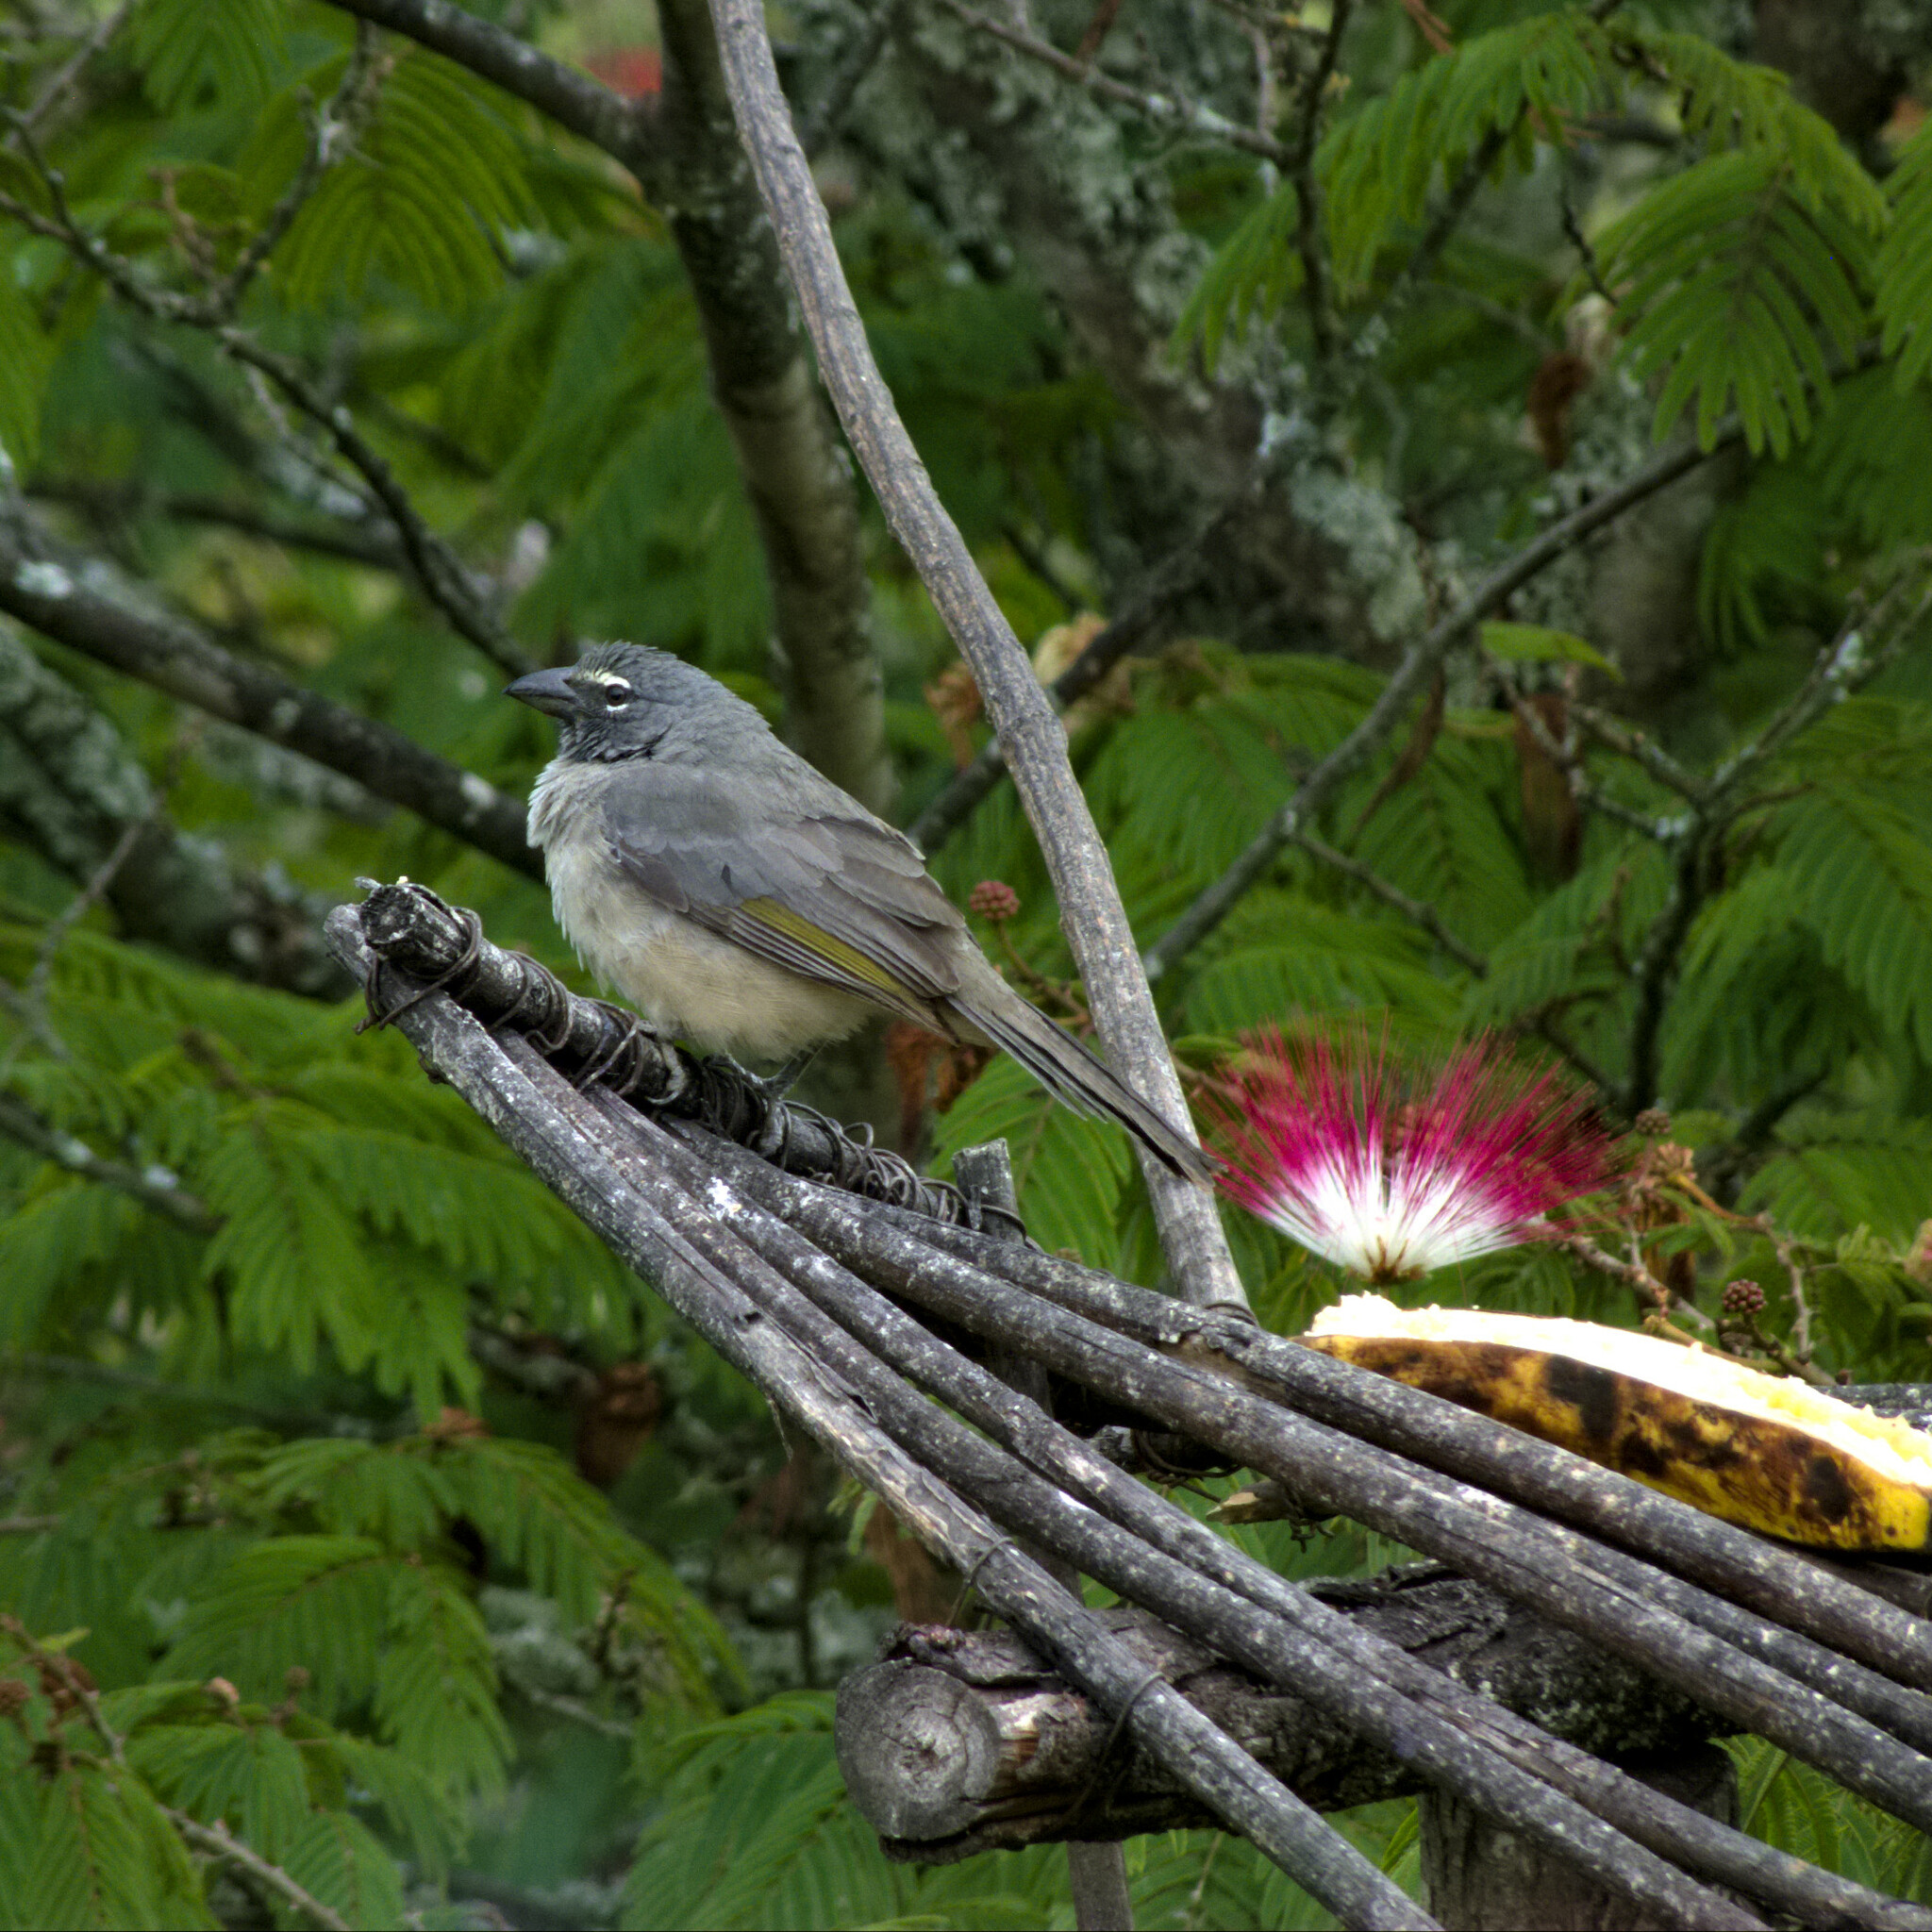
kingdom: Animalia
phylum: Chordata
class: Aves
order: Passeriformes
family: Thraupidae
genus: Saltator
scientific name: Saltator olivascens
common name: Caribbean grey saltator
